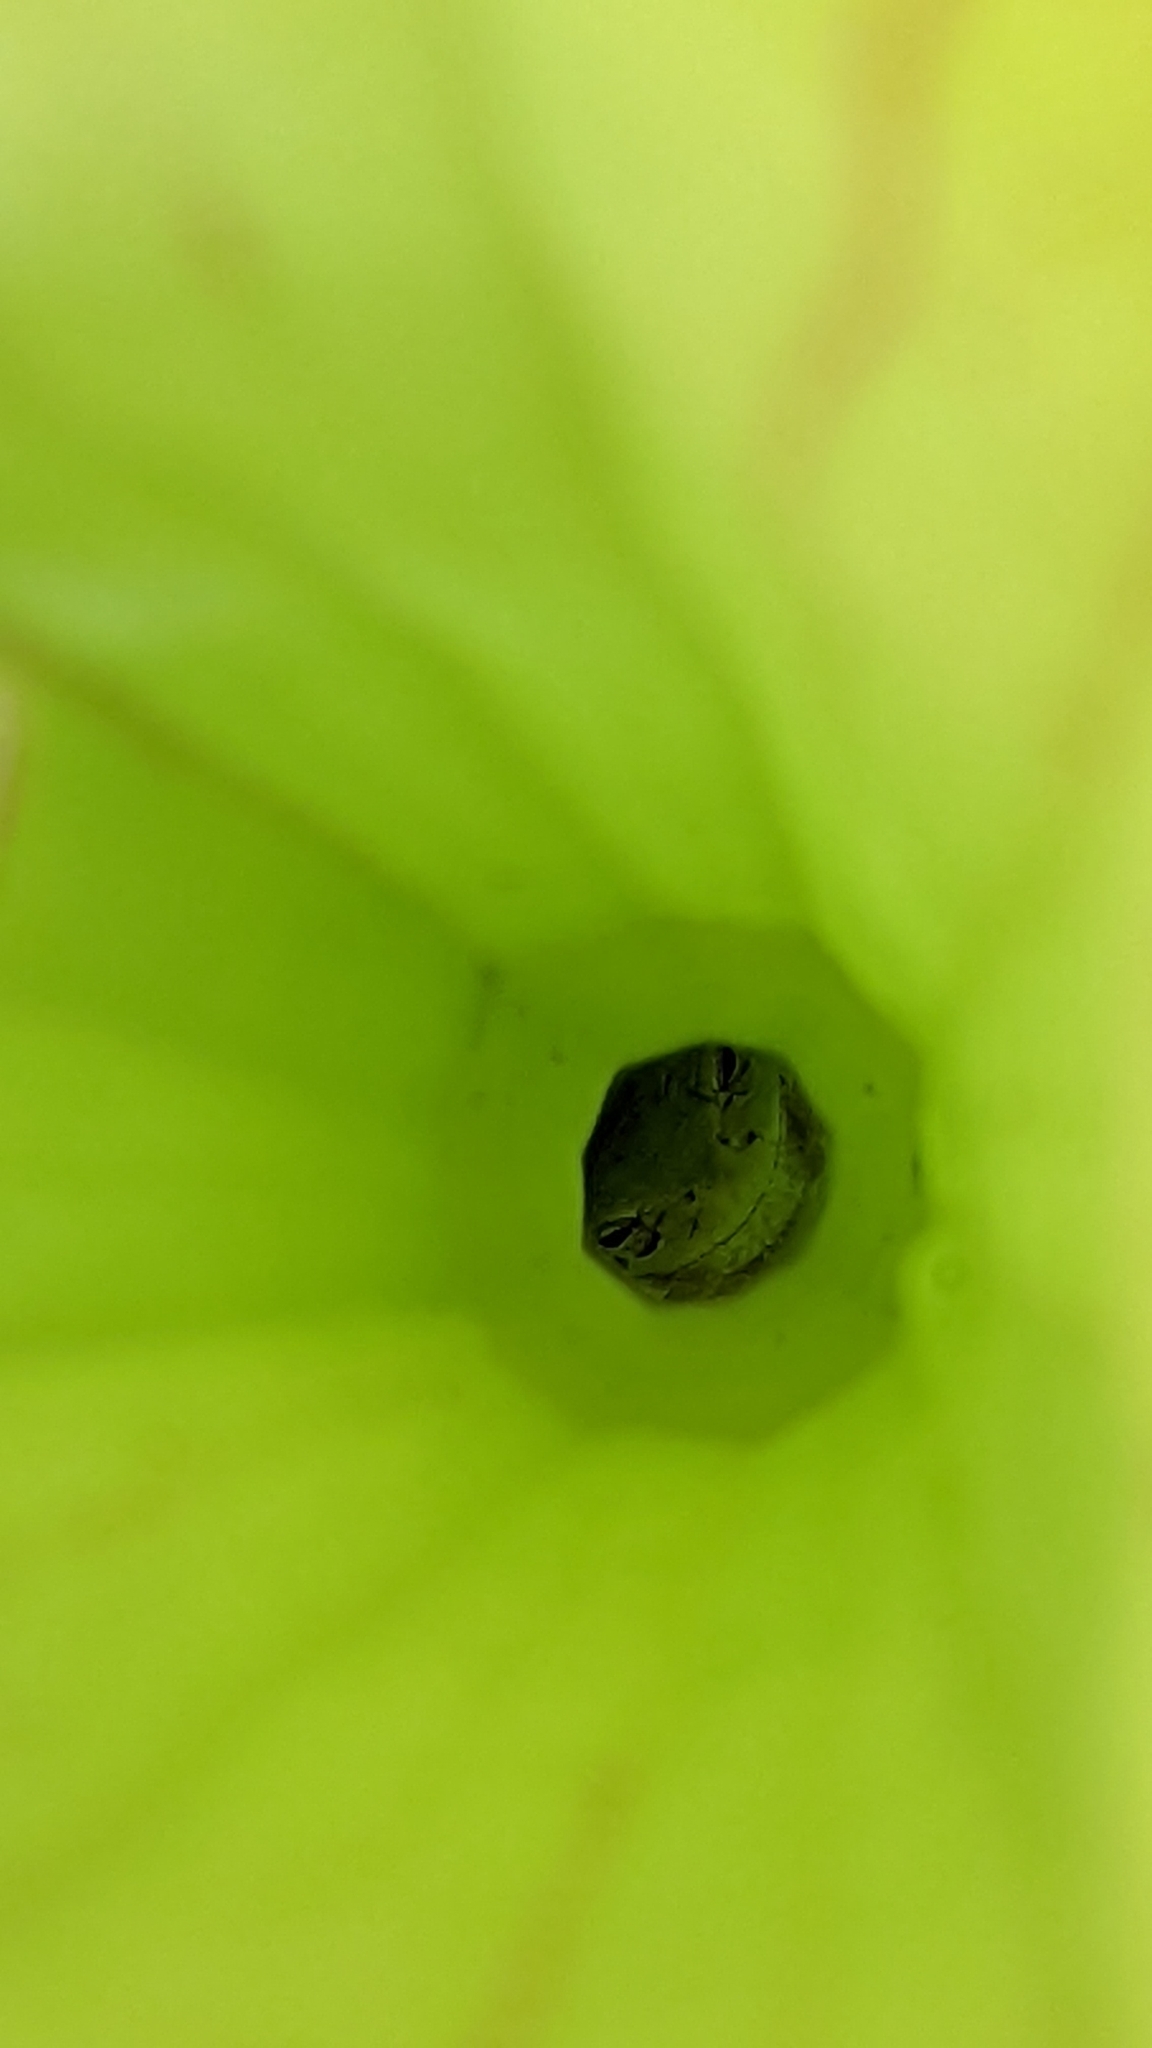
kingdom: Animalia
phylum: Chordata
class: Amphibia
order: Anura
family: Hylidae
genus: Hyla
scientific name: Hyla femoralis
